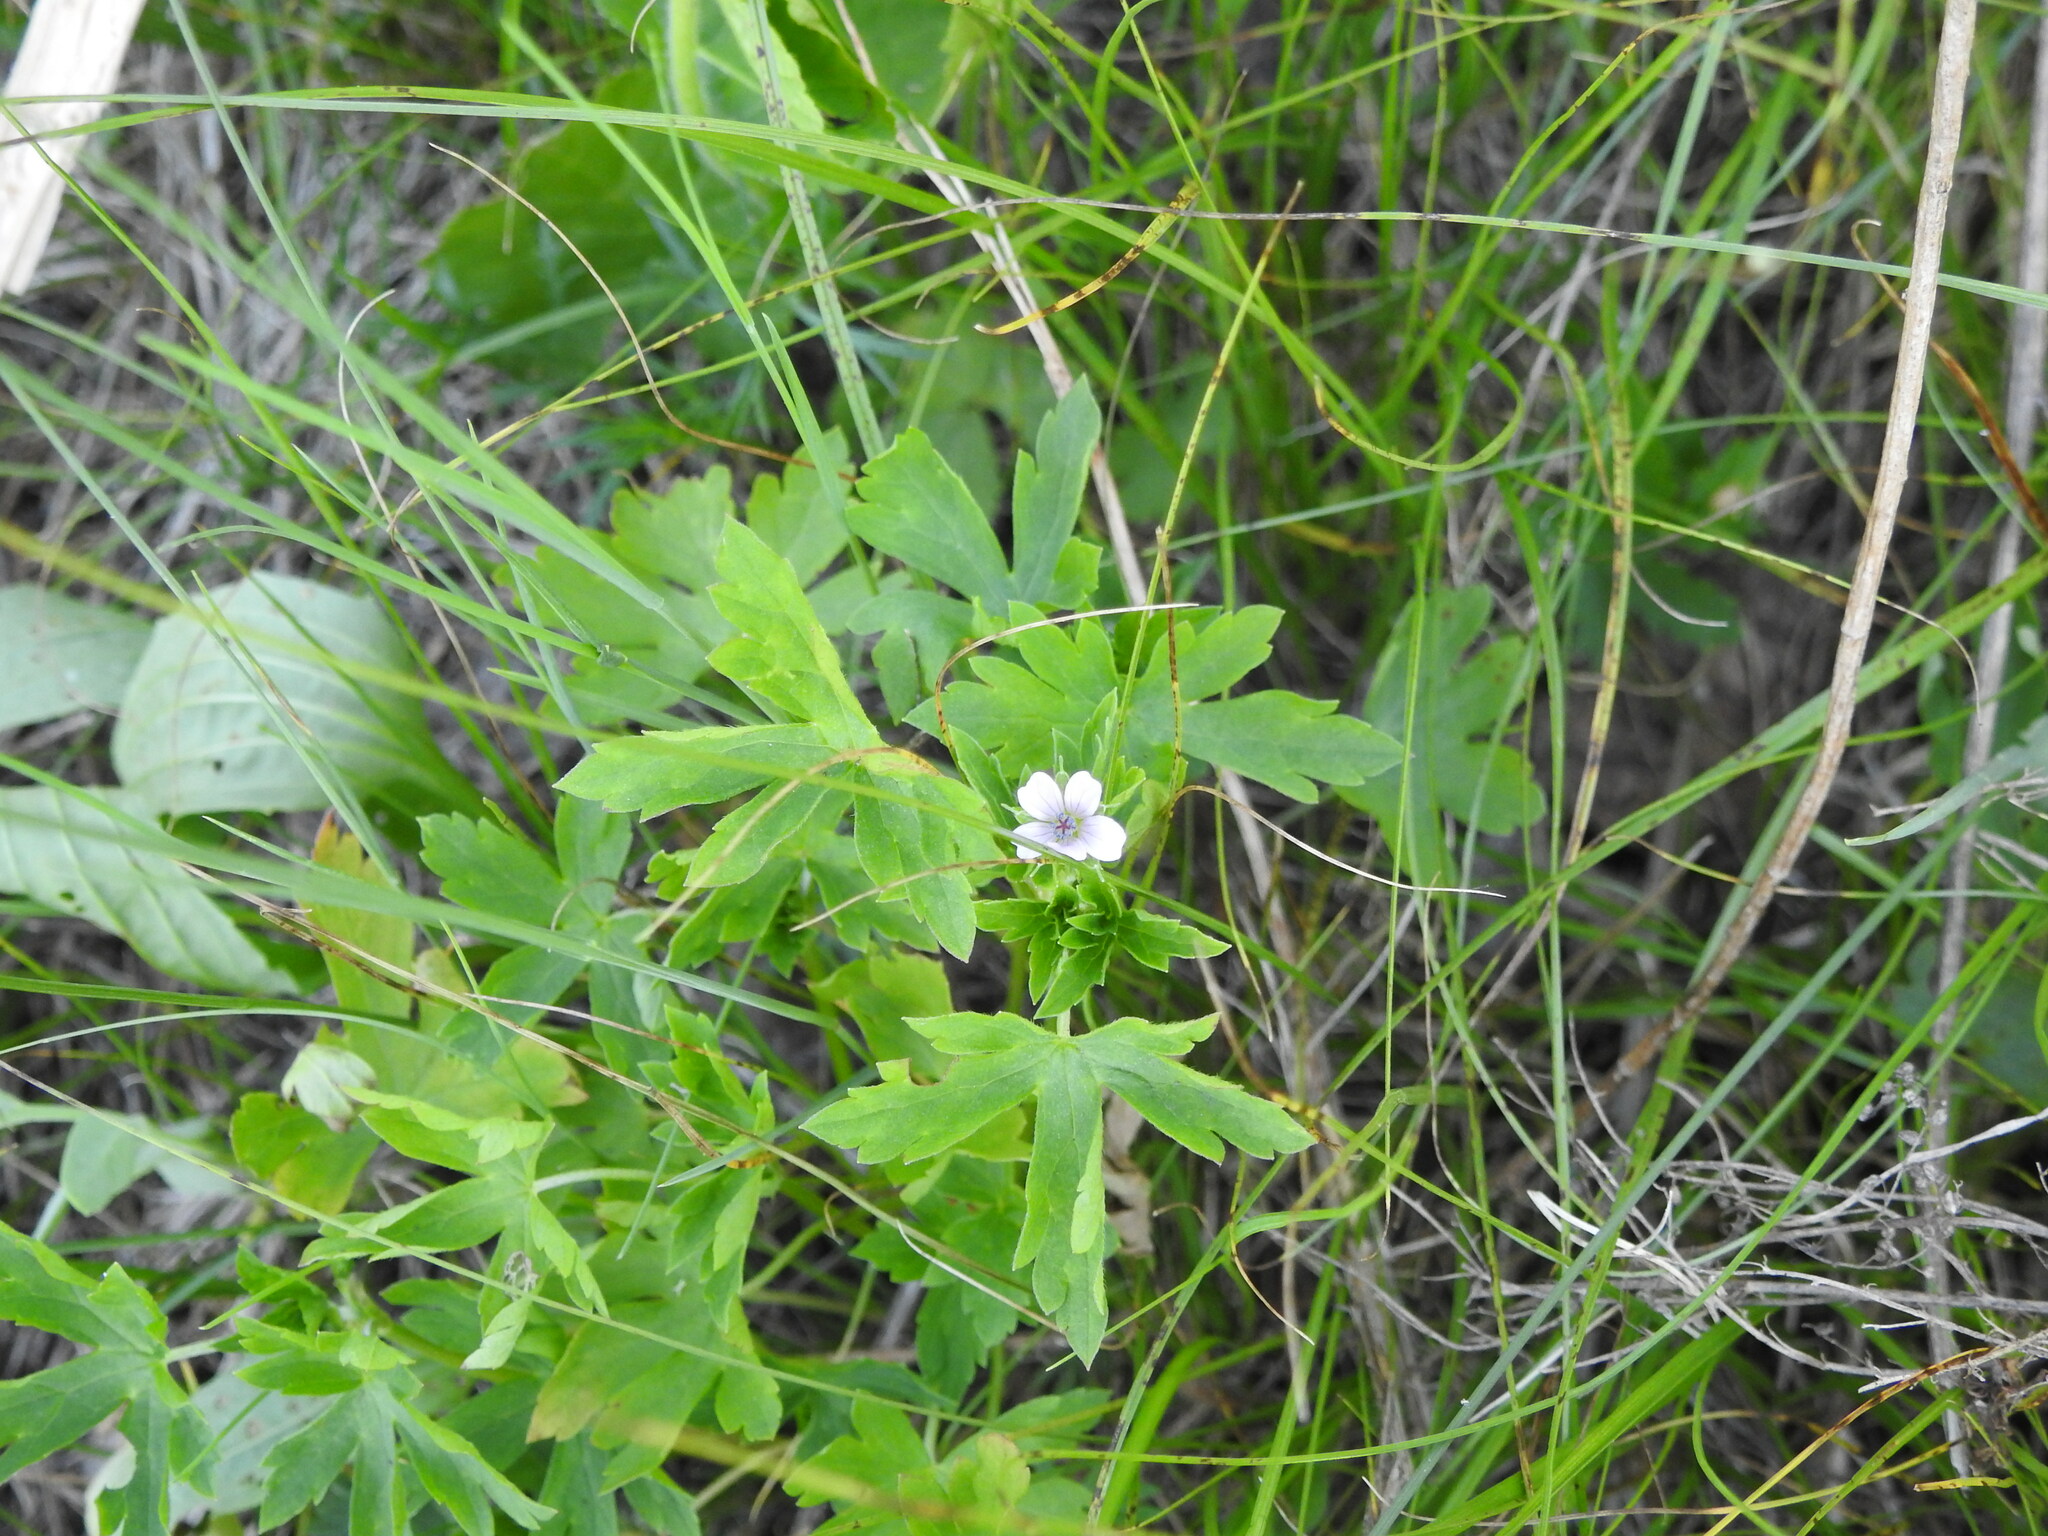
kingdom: Plantae
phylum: Tracheophyta
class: Magnoliopsida
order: Geraniales
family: Geraniaceae
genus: Geranium
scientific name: Geranium sibiricum
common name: Siberian crane's-bill
